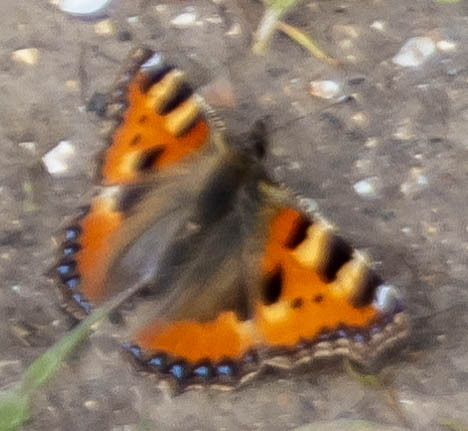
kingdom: Animalia
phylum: Arthropoda
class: Insecta
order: Lepidoptera
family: Nymphalidae
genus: Aglais
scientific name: Aglais urticae
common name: Small tortoiseshell
